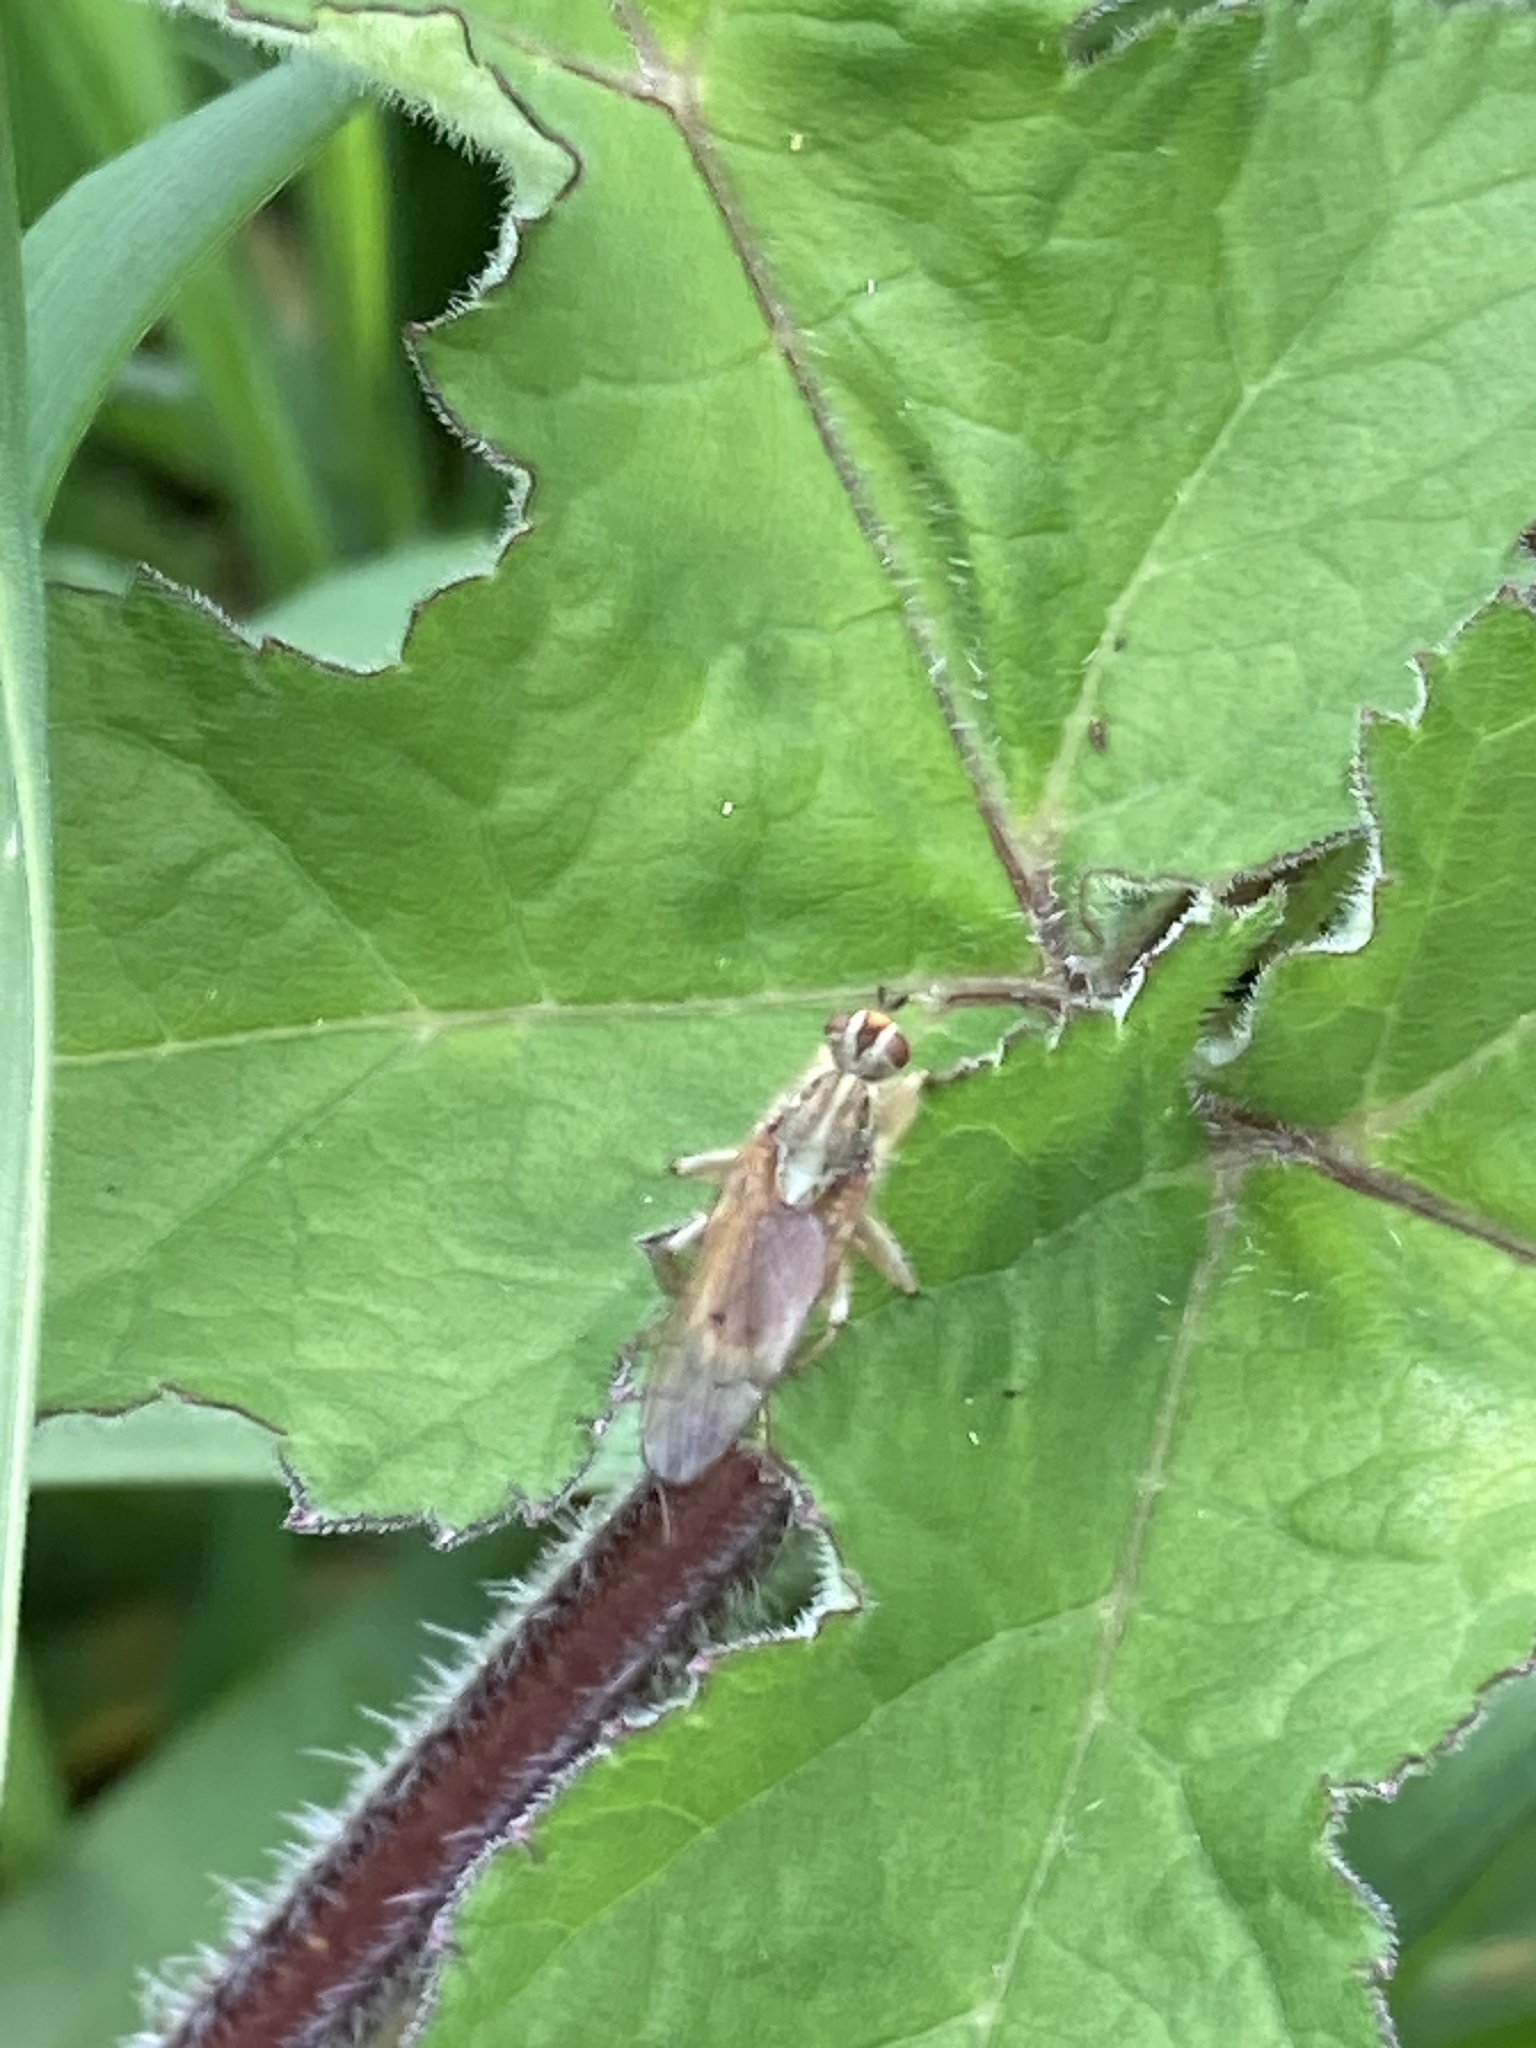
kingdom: Animalia
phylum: Arthropoda
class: Insecta
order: Diptera
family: Scathophagidae
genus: Scathophaga
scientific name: Scathophaga stercoraria
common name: Yellow dung fly
